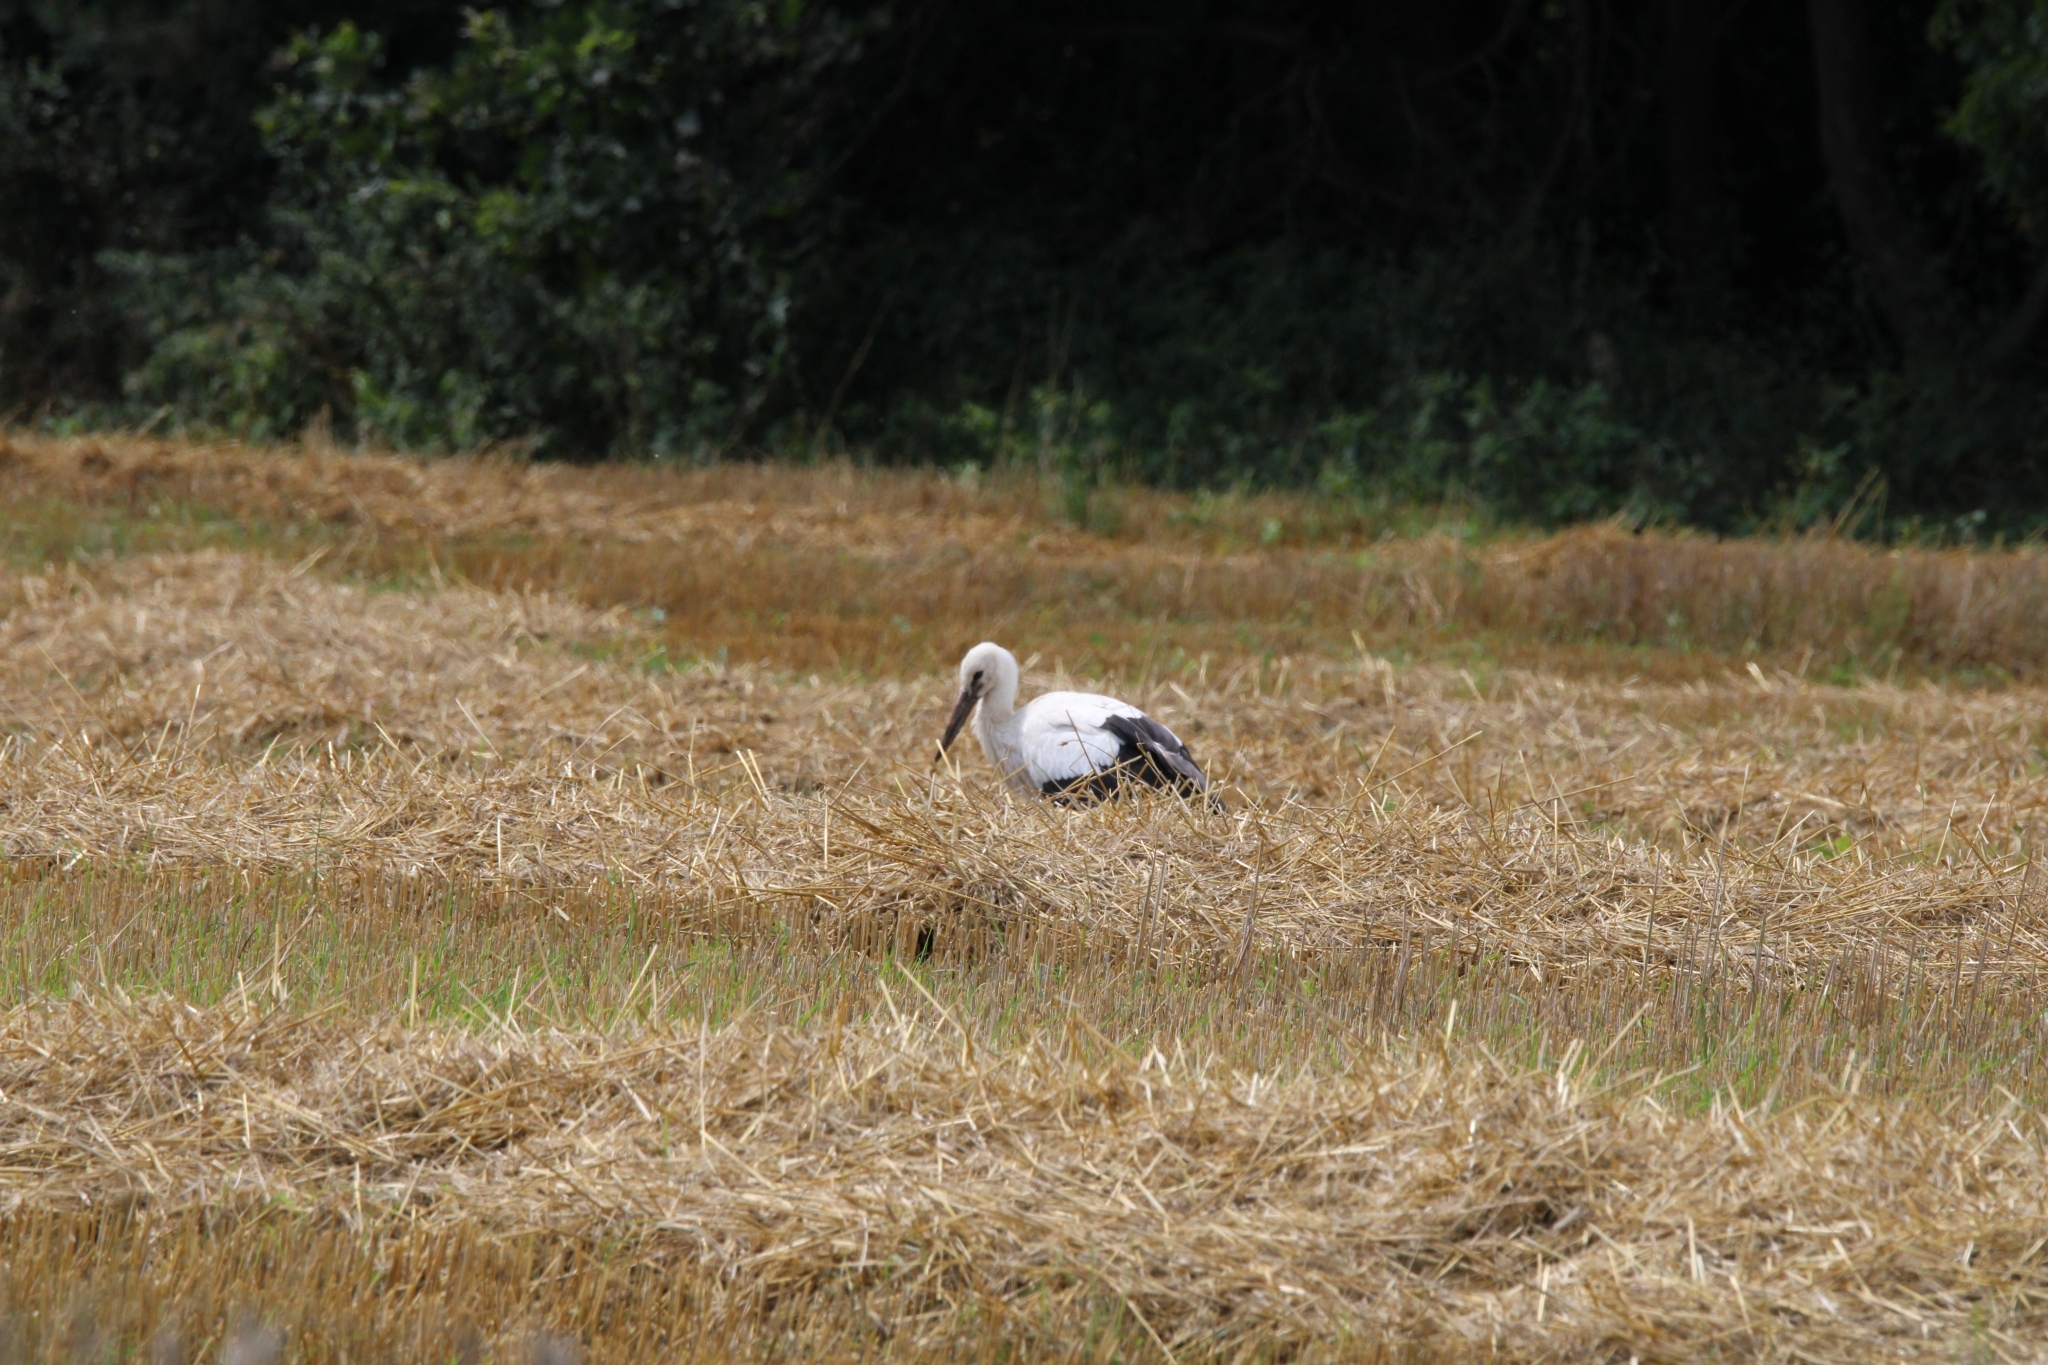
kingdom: Animalia
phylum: Chordata
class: Aves
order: Ciconiiformes
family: Ciconiidae
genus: Ciconia
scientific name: Ciconia ciconia
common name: White stork
